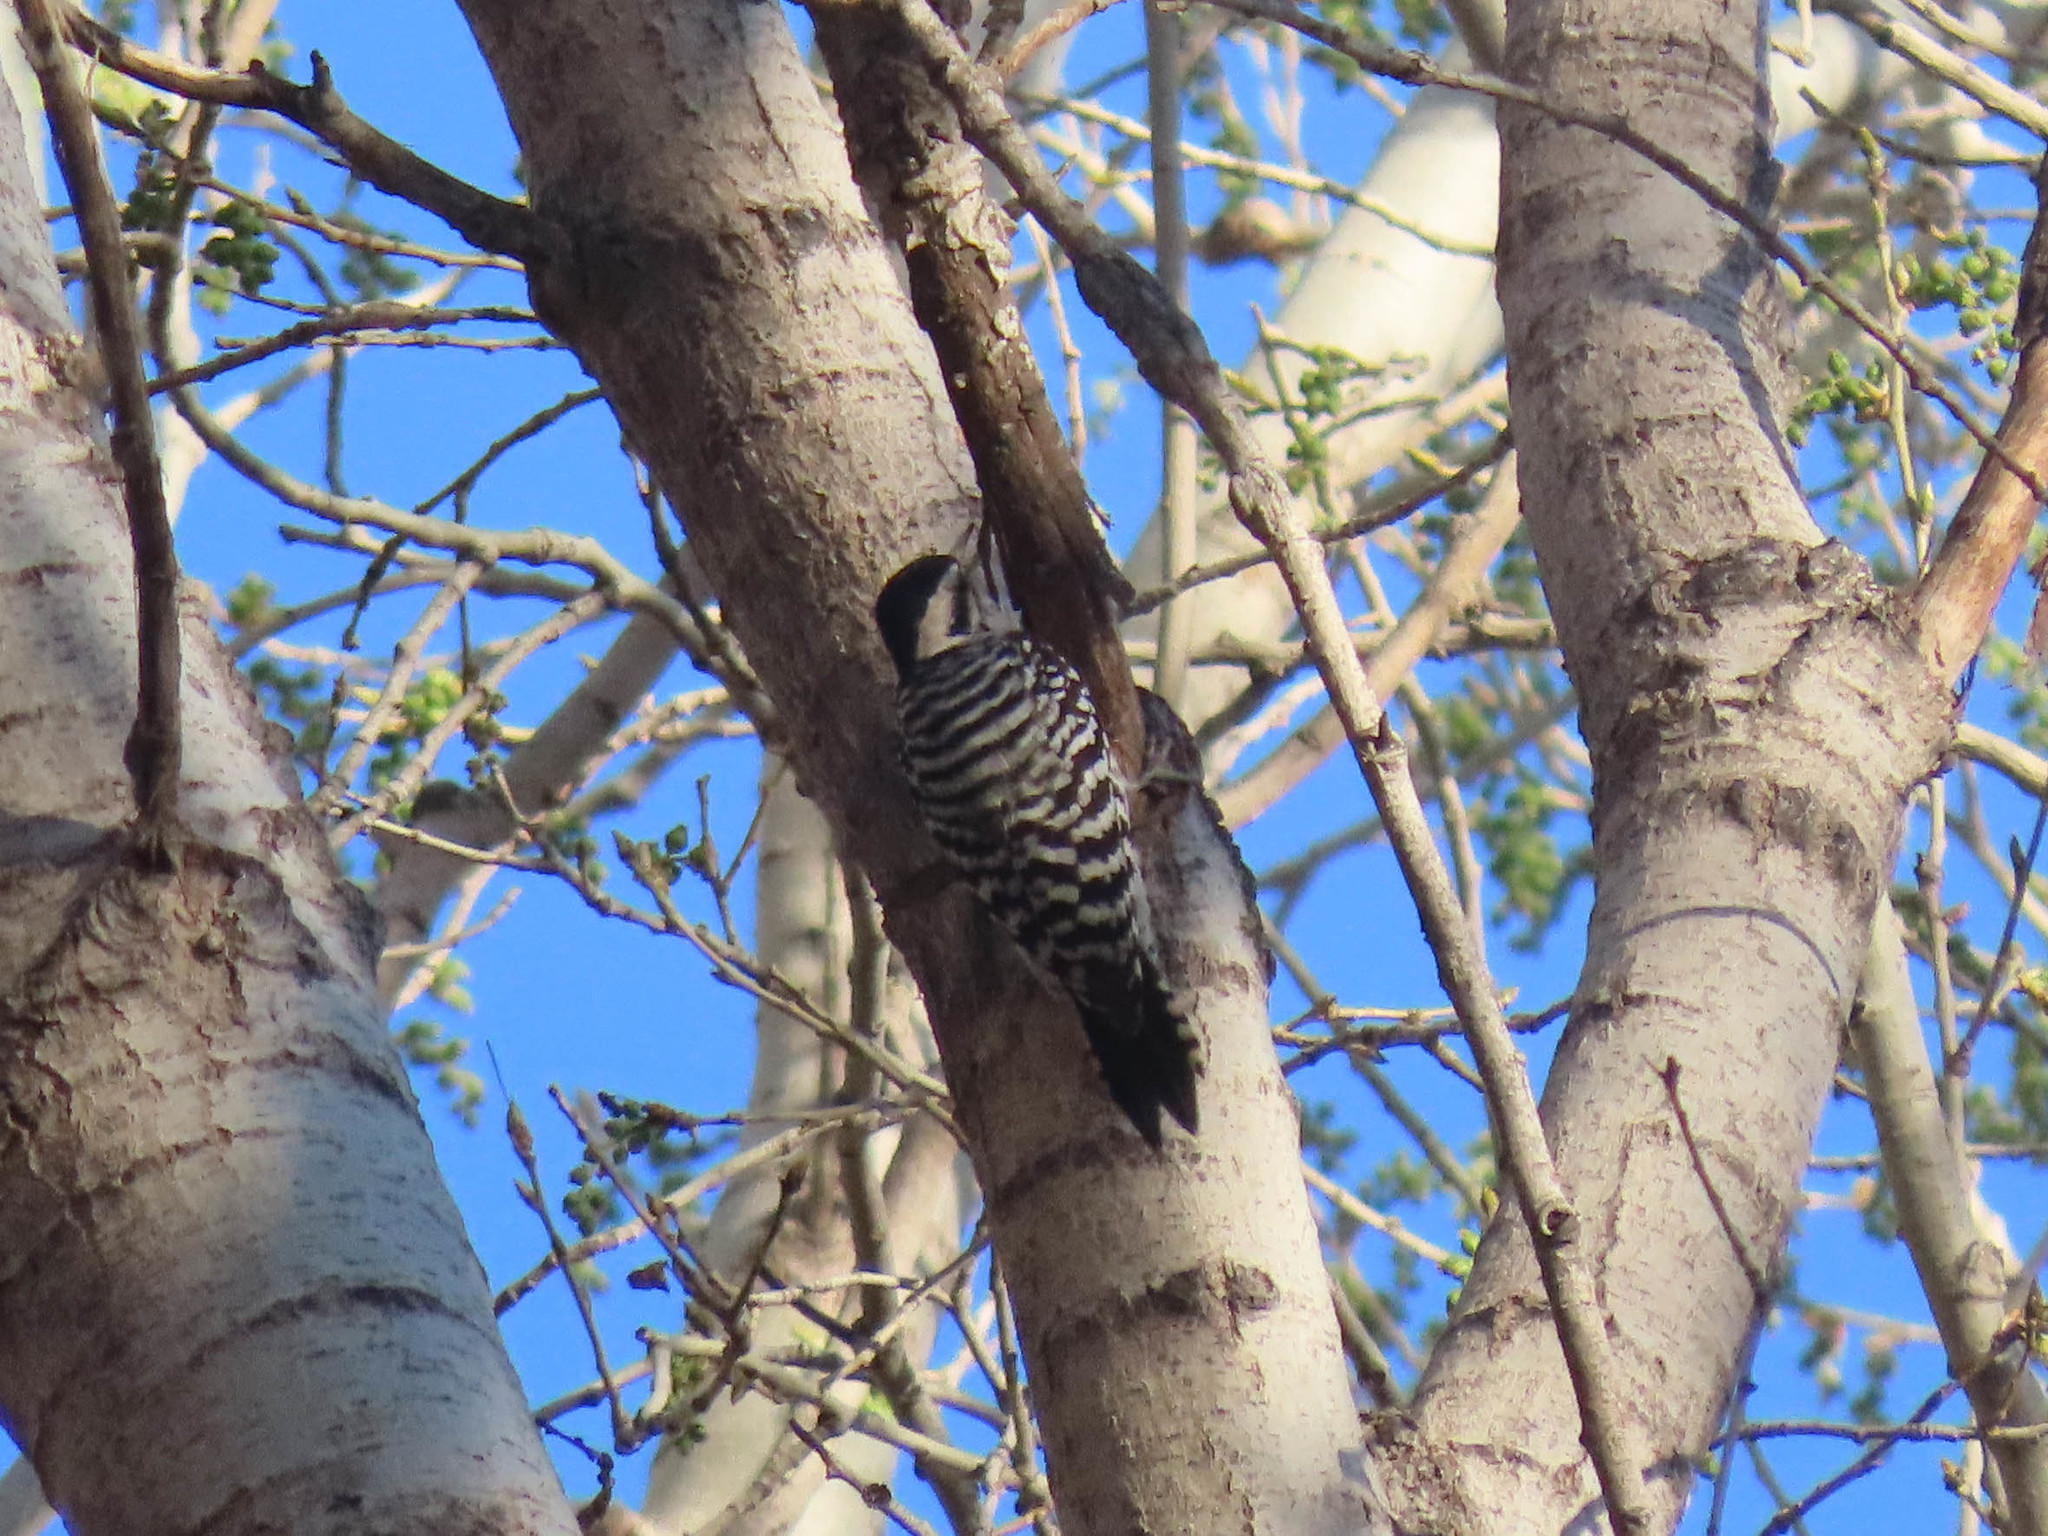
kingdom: Animalia
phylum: Chordata
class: Aves
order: Piciformes
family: Picidae
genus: Dryobates
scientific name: Dryobates scalaris
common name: Ladder-backed woodpecker
